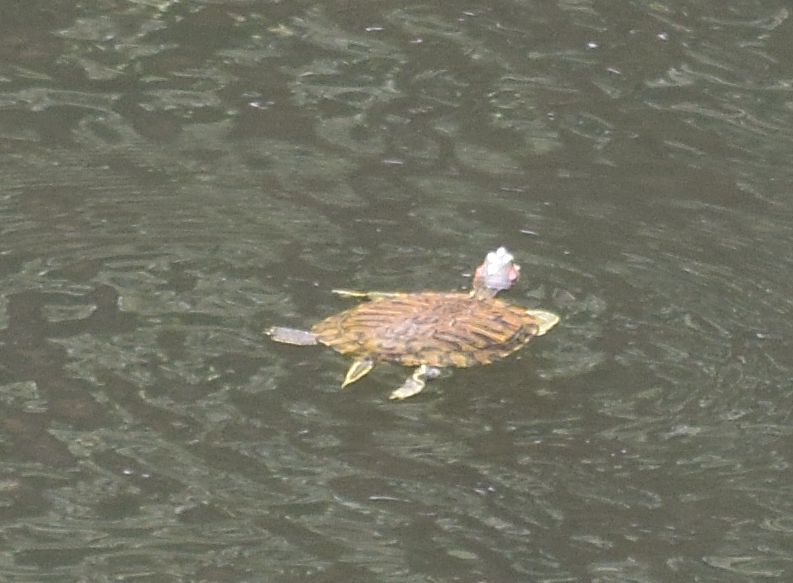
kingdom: Animalia
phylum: Chordata
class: Testudines
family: Emydidae
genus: Trachemys
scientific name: Trachemys scripta
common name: Slider
